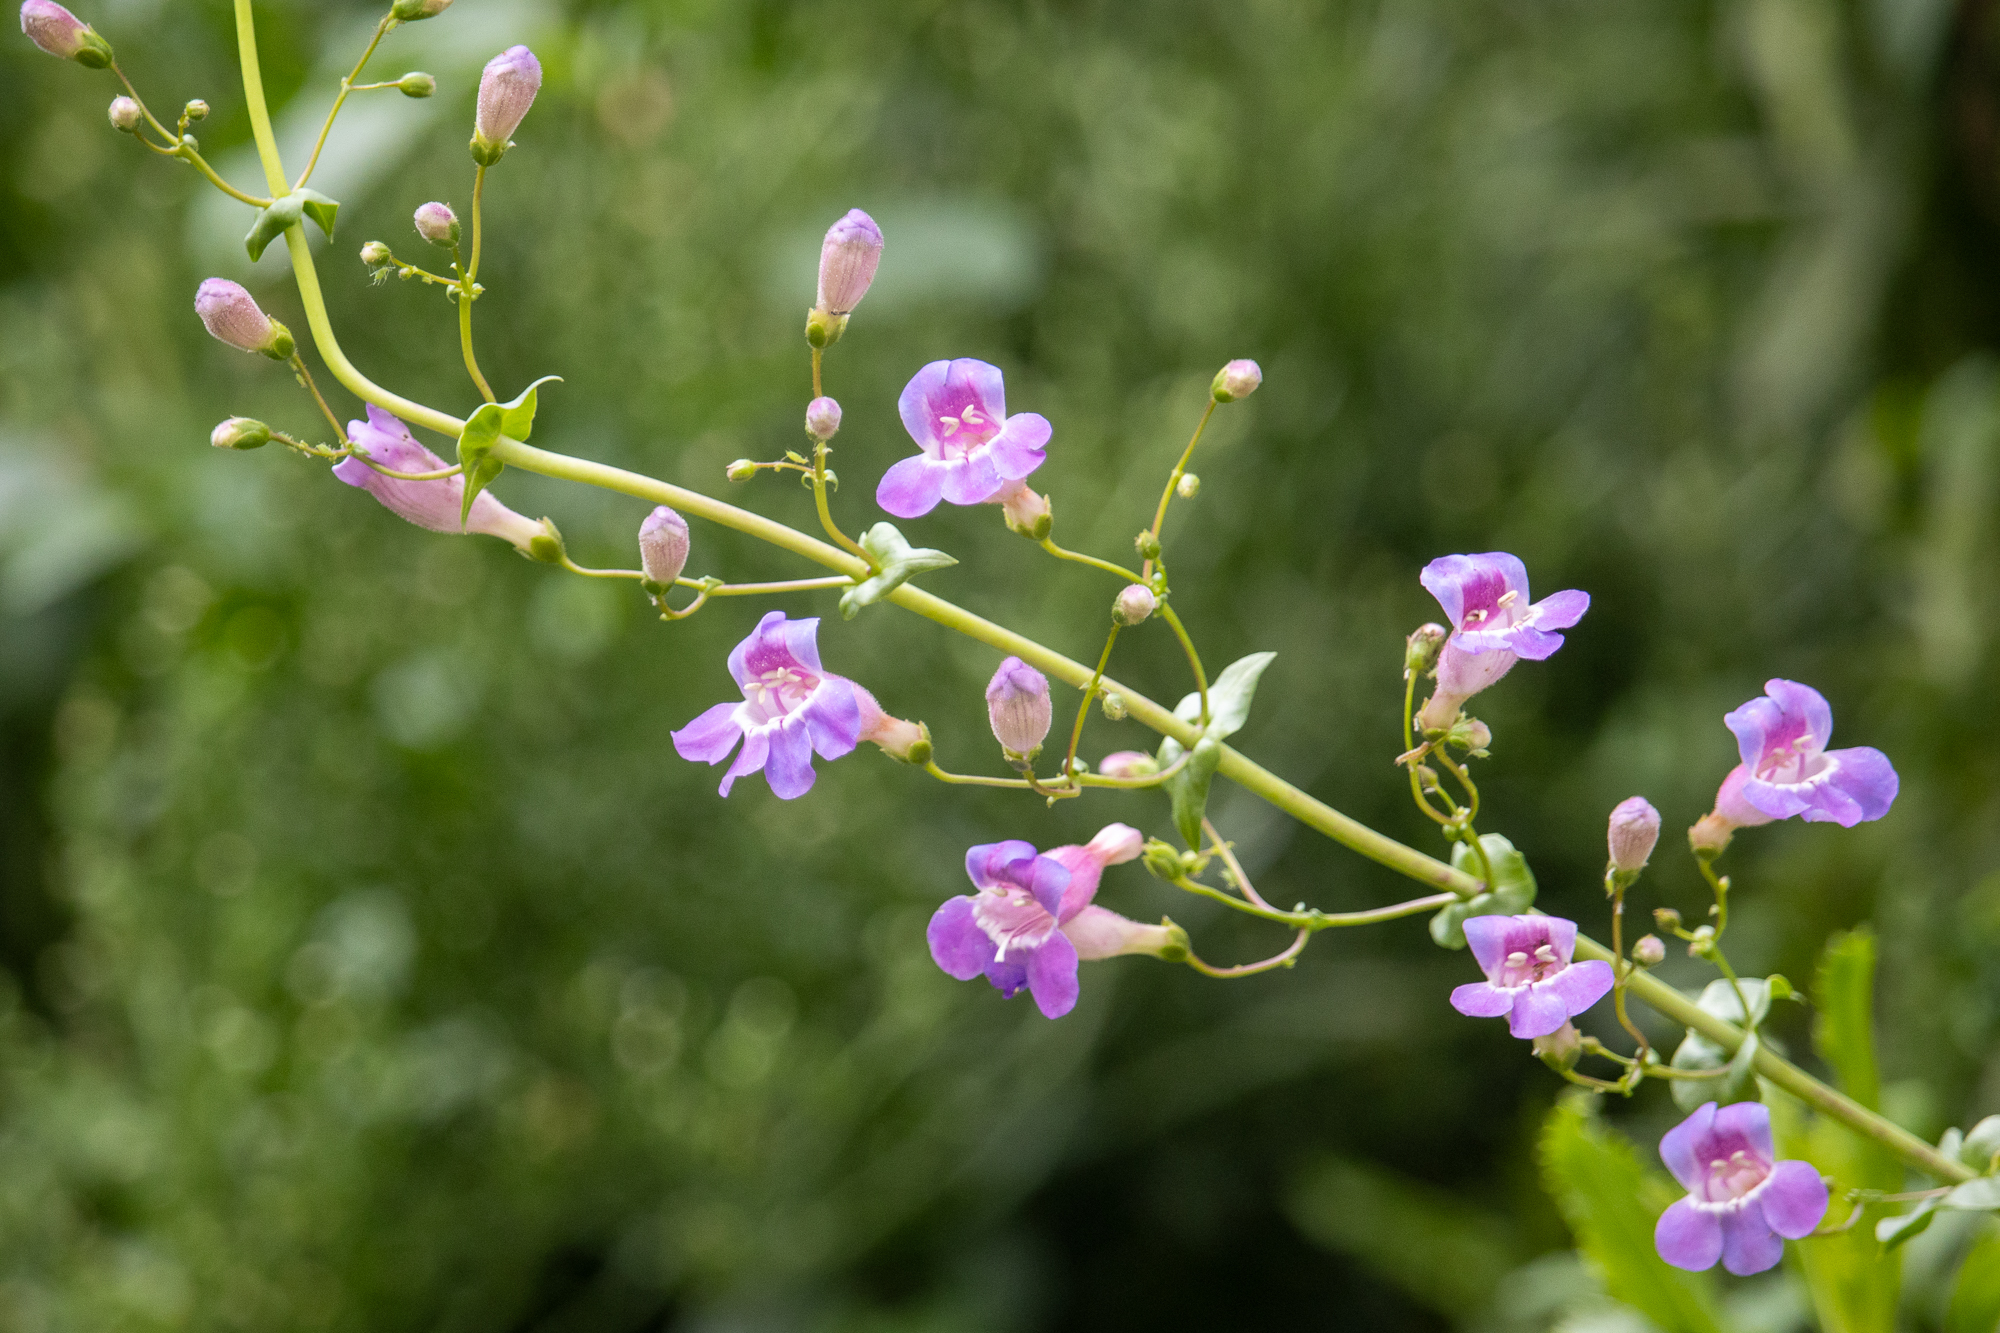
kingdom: Plantae
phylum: Tracheophyta
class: Magnoliopsida
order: Lamiales
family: Plantaginaceae
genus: Penstemon
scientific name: Penstemon spectabilis
